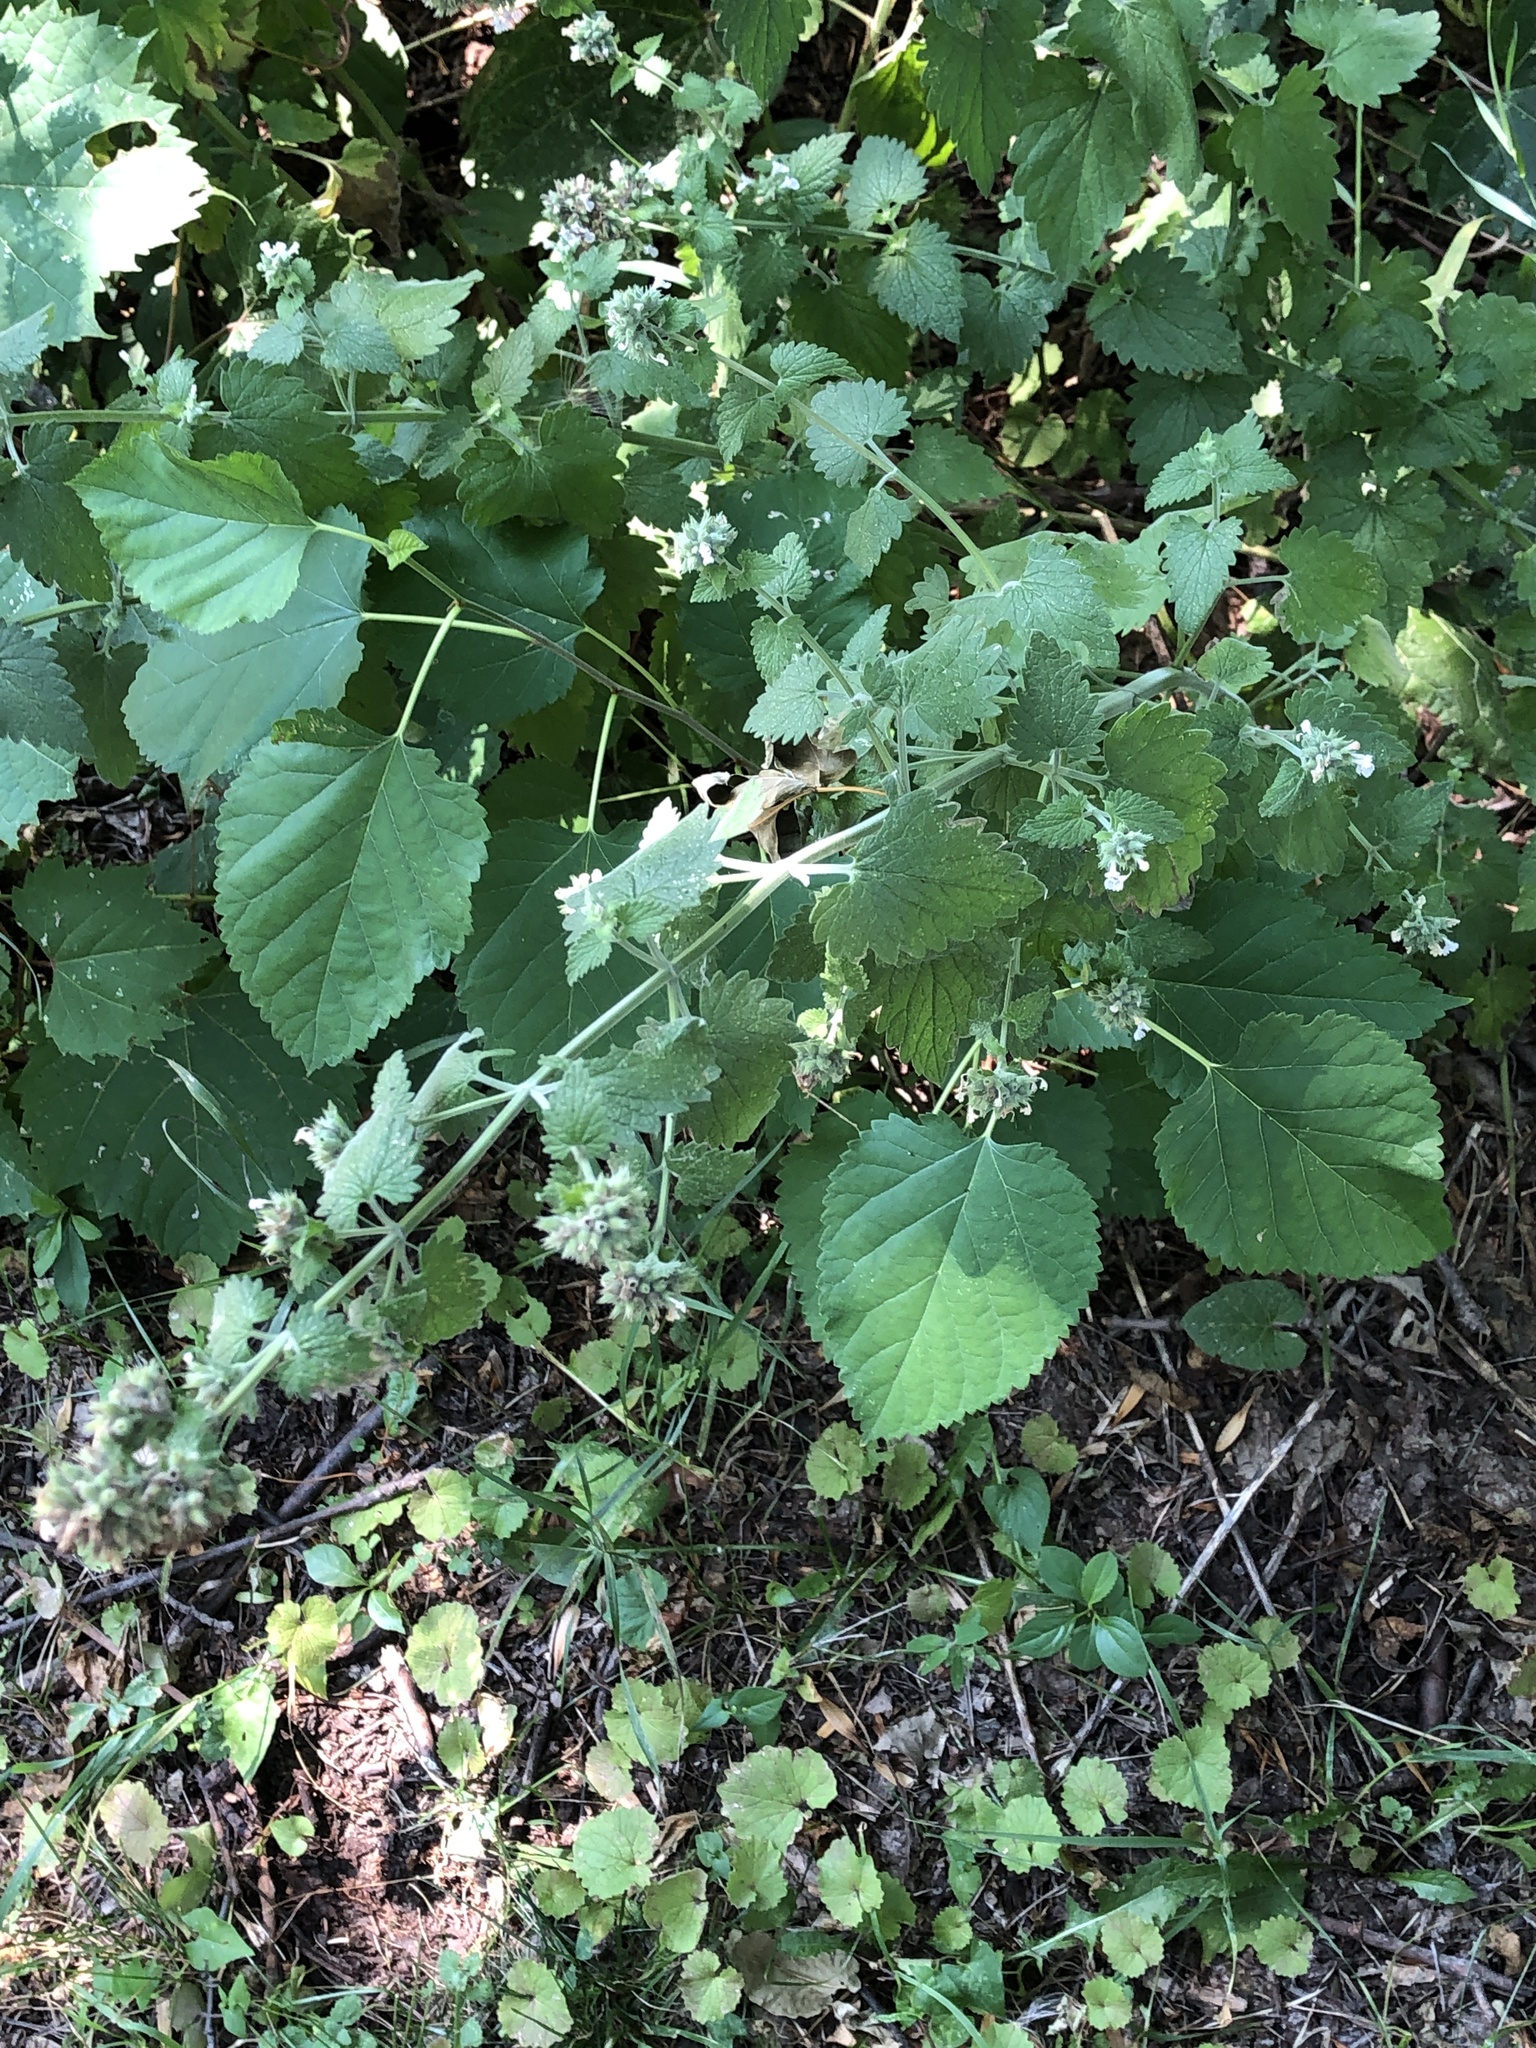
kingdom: Plantae
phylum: Tracheophyta
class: Magnoliopsida
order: Lamiales
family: Lamiaceae
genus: Nepeta
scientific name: Nepeta cataria
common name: Catnip
